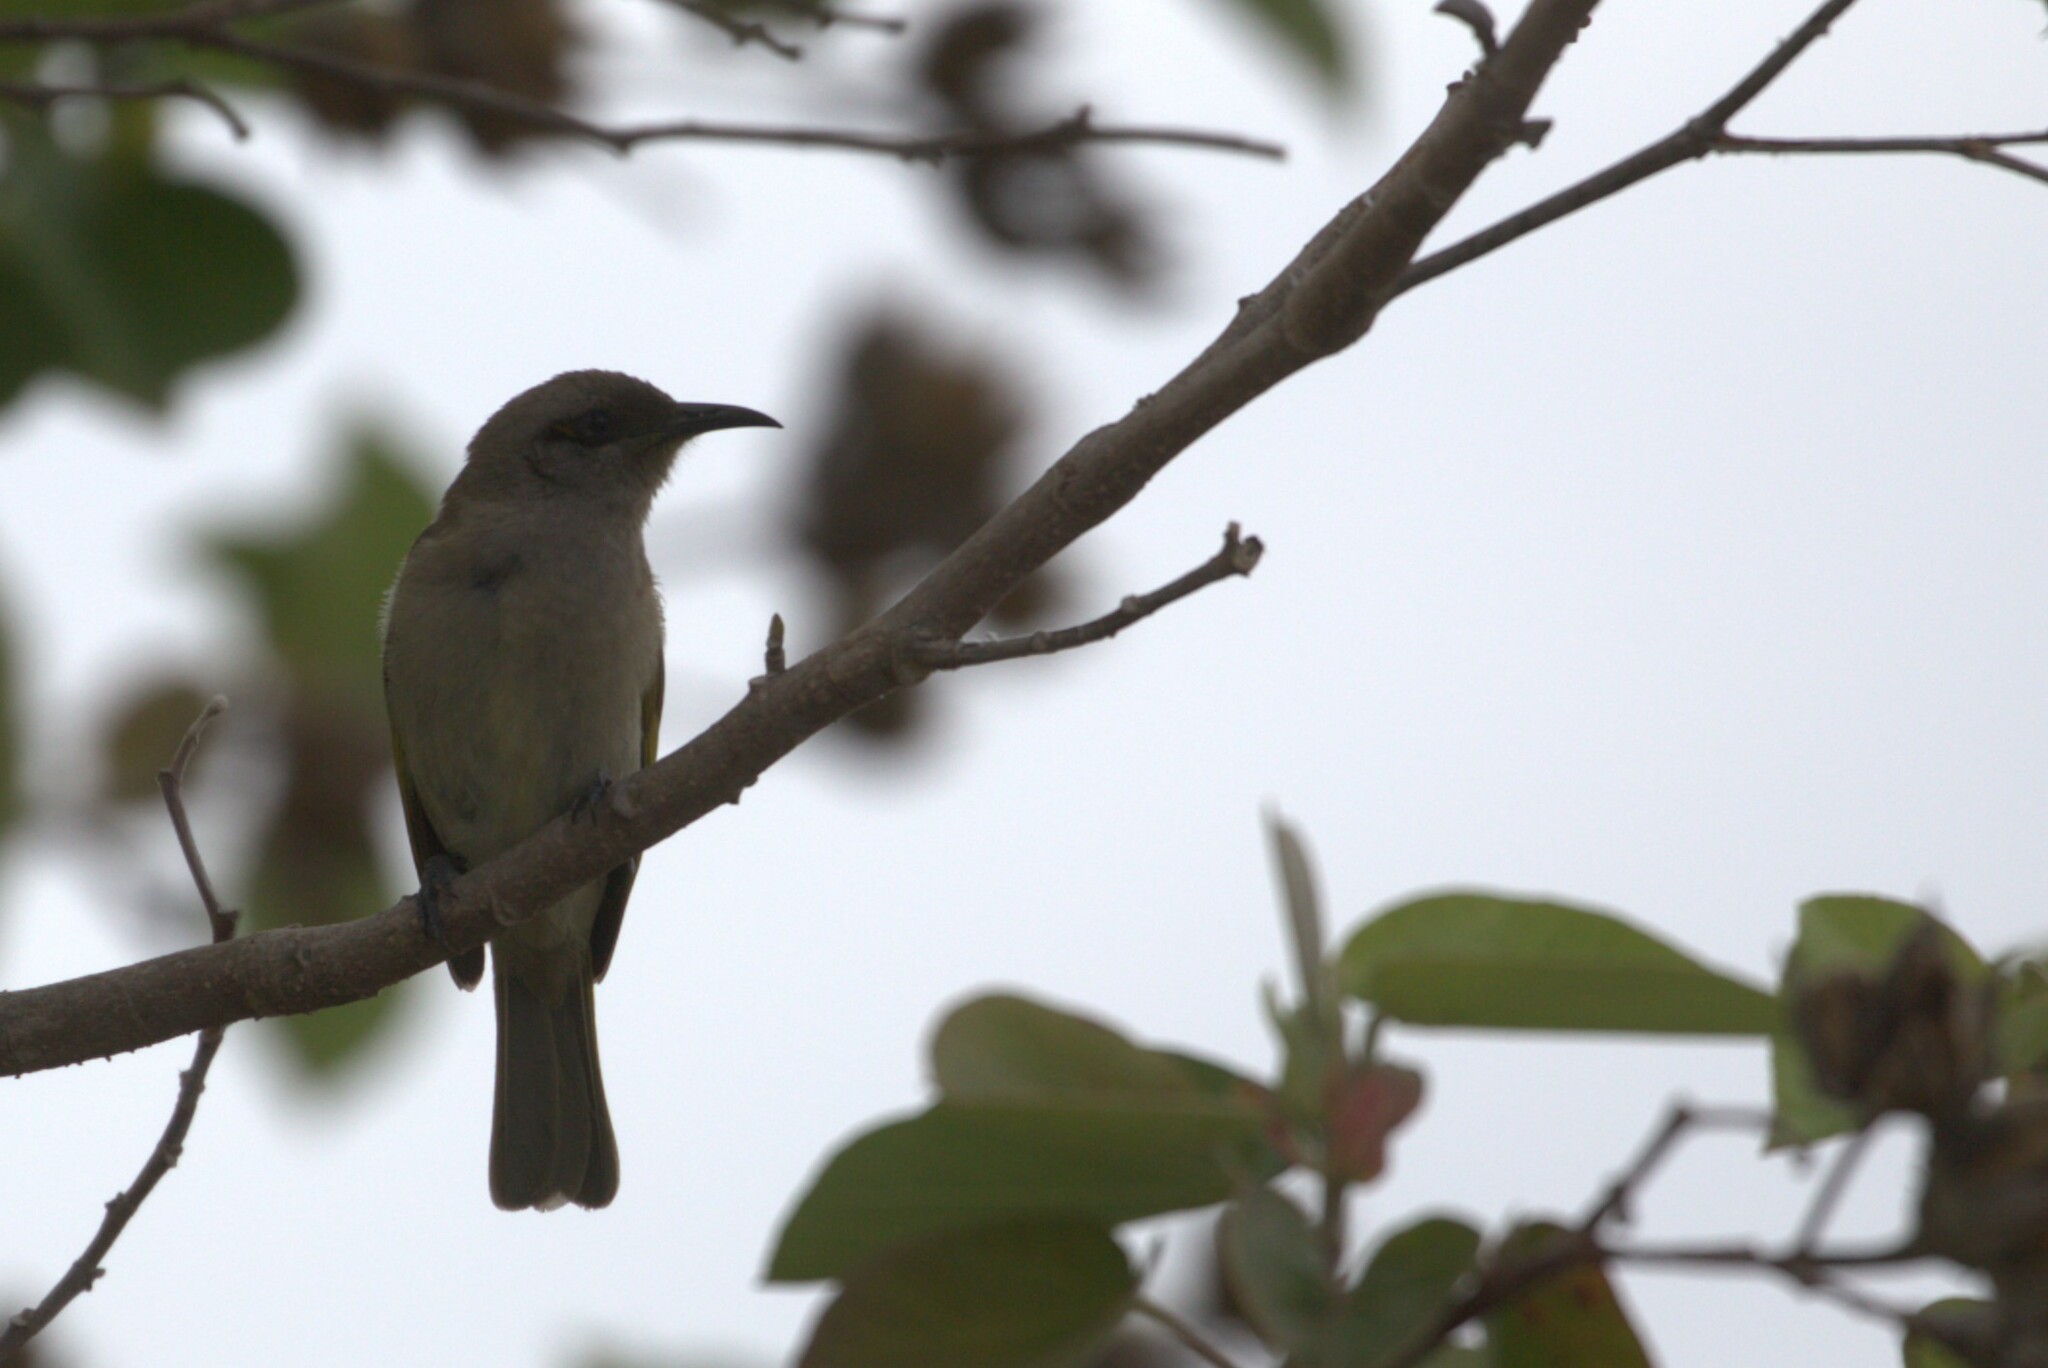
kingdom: Animalia
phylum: Chordata
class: Aves
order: Passeriformes
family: Meliphagidae
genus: Lichmera
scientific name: Lichmera indistincta
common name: Brown honeyeater
